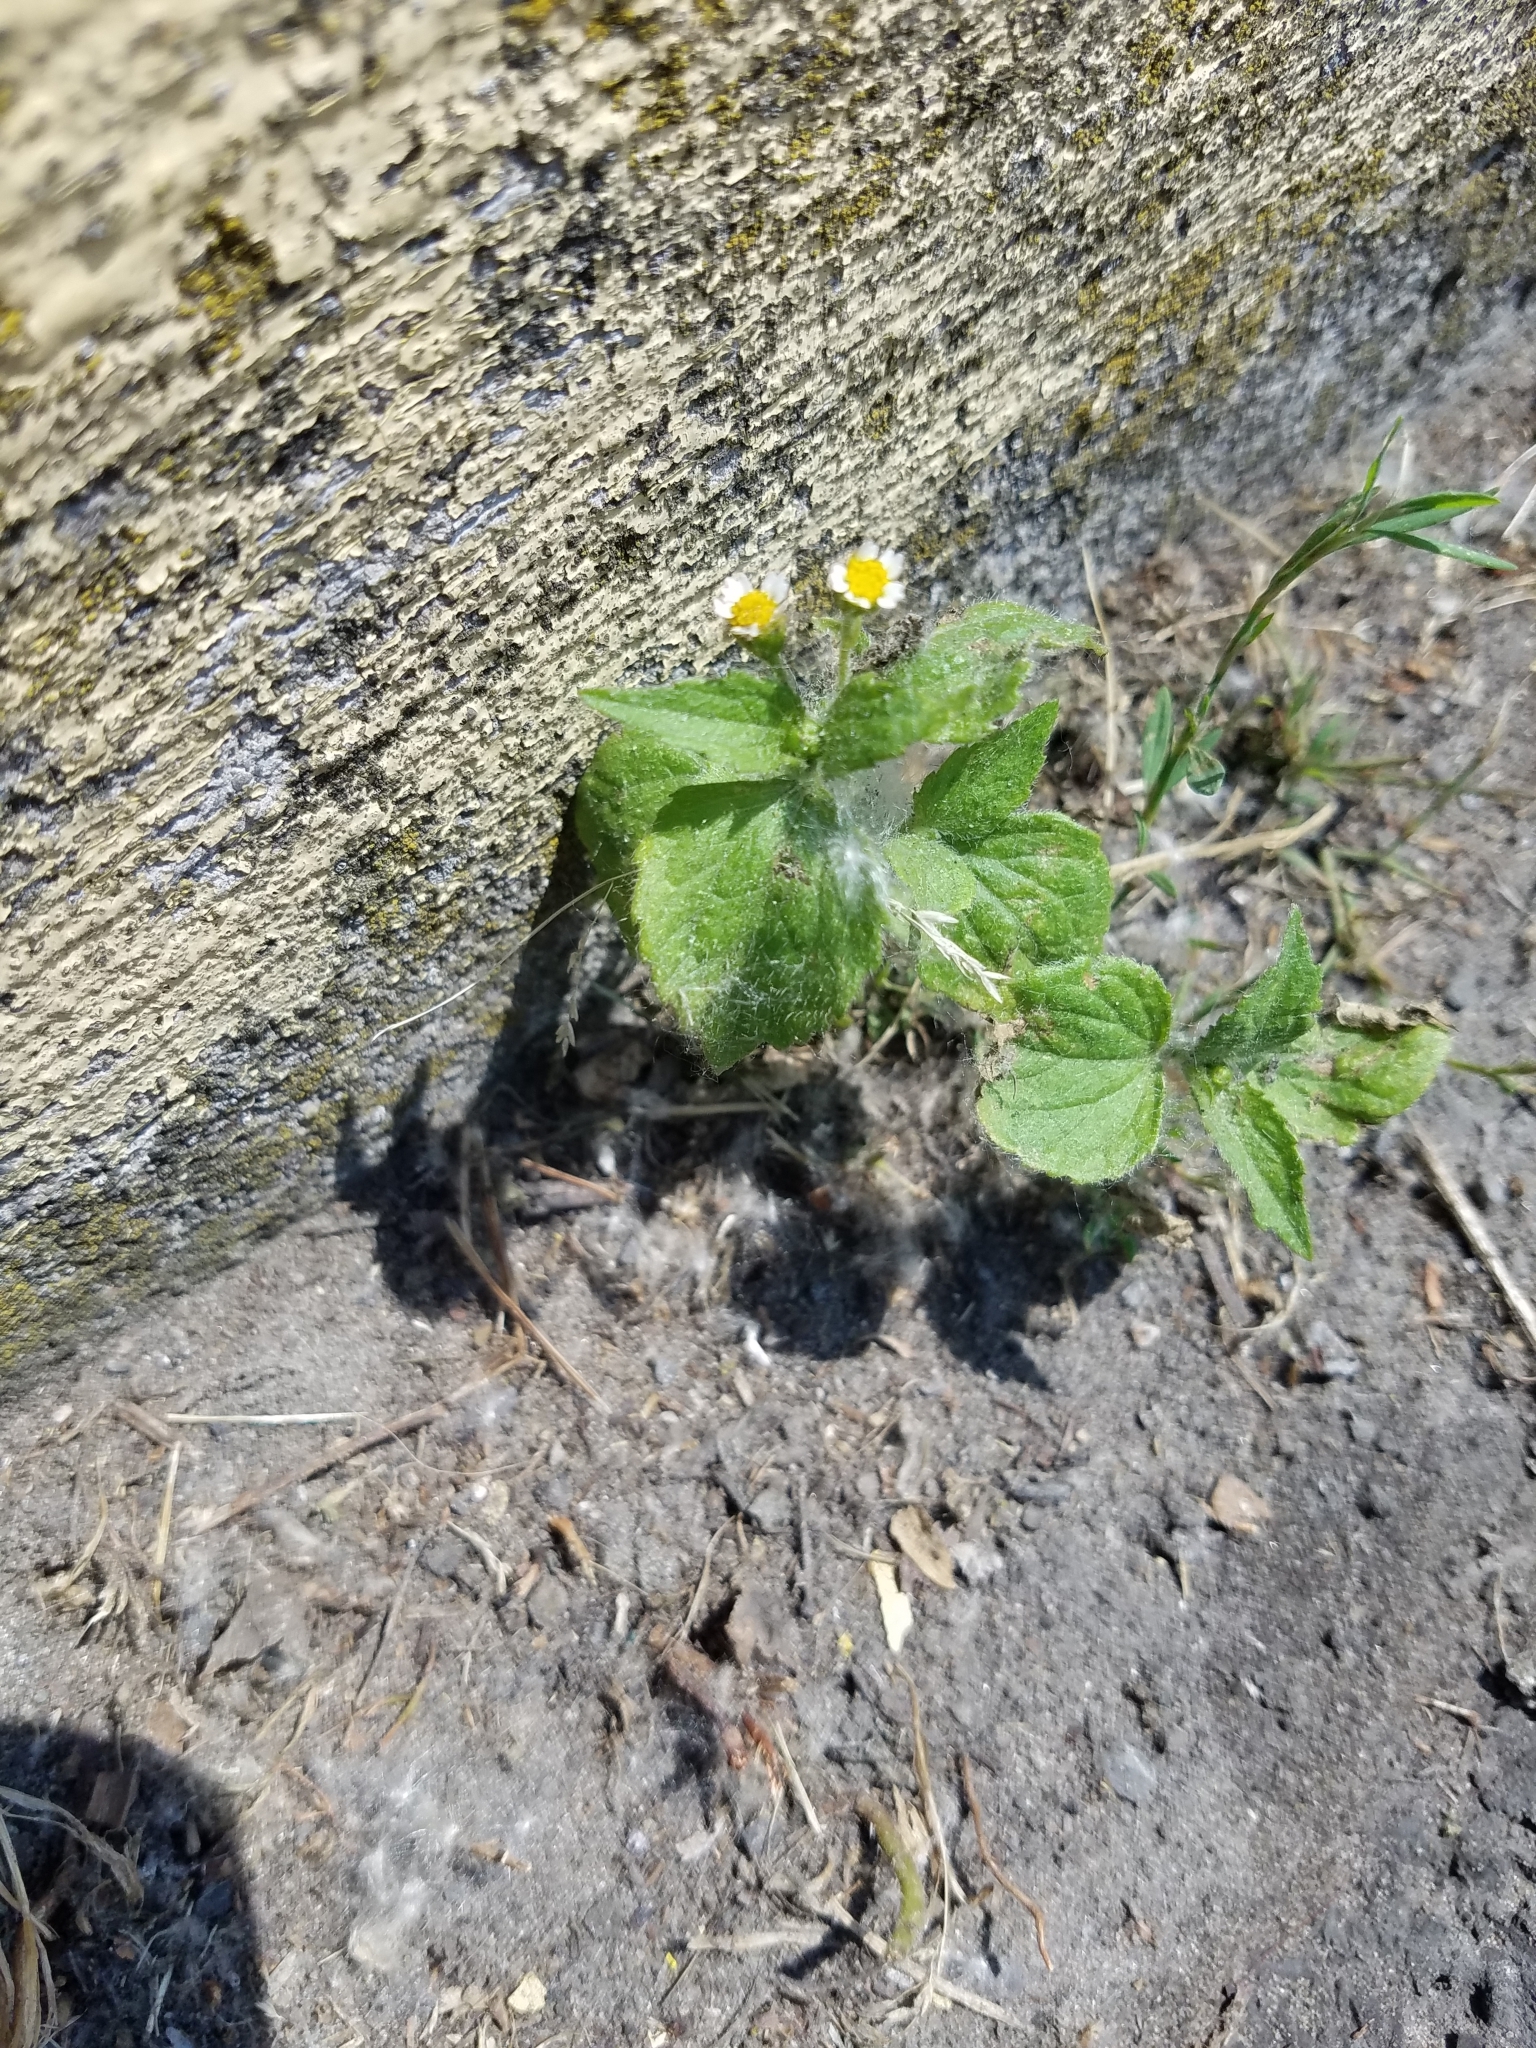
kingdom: Plantae
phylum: Tracheophyta
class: Magnoliopsida
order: Asterales
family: Asteraceae
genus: Galinsoga
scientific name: Galinsoga quadriradiata
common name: Shaggy soldier
